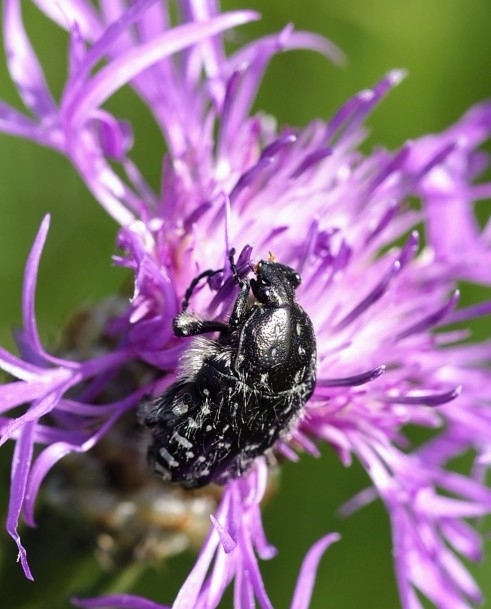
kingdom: Animalia
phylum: Arthropoda
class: Insecta
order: Coleoptera
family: Scarabaeidae
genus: Oxythyrea
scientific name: Oxythyrea funesta
